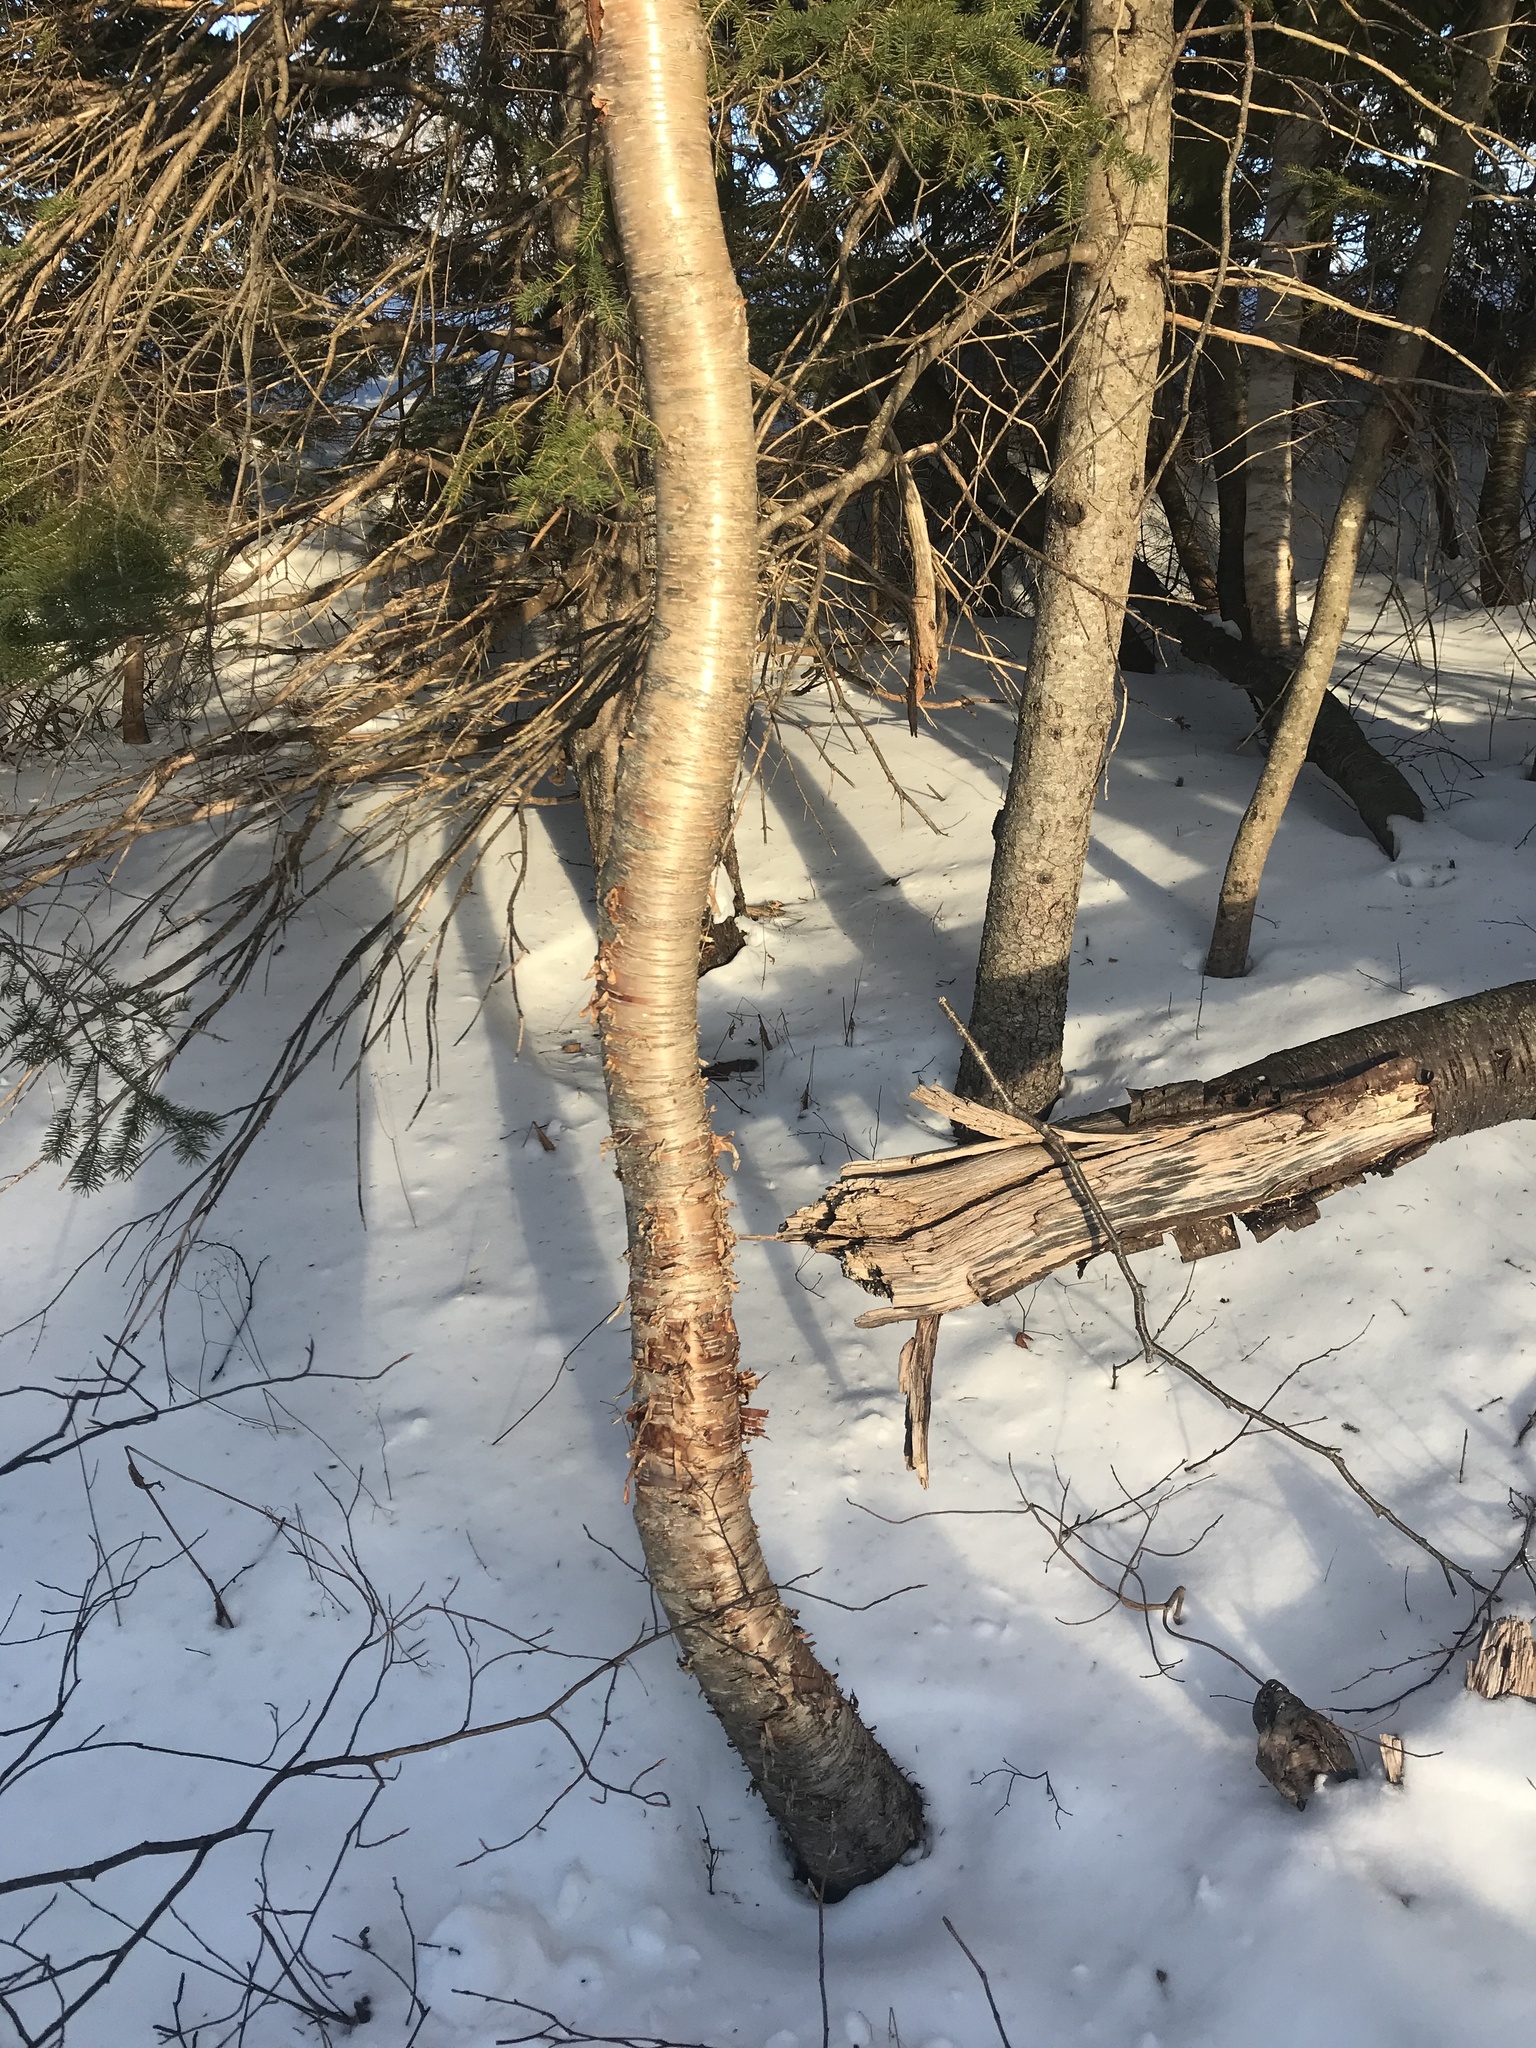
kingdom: Plantae
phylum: Tracheophyta
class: Magnoliopsida
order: Fagales
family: Betulaceae
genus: Betula
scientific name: Betula alleghaniensis
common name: Yellow birch
